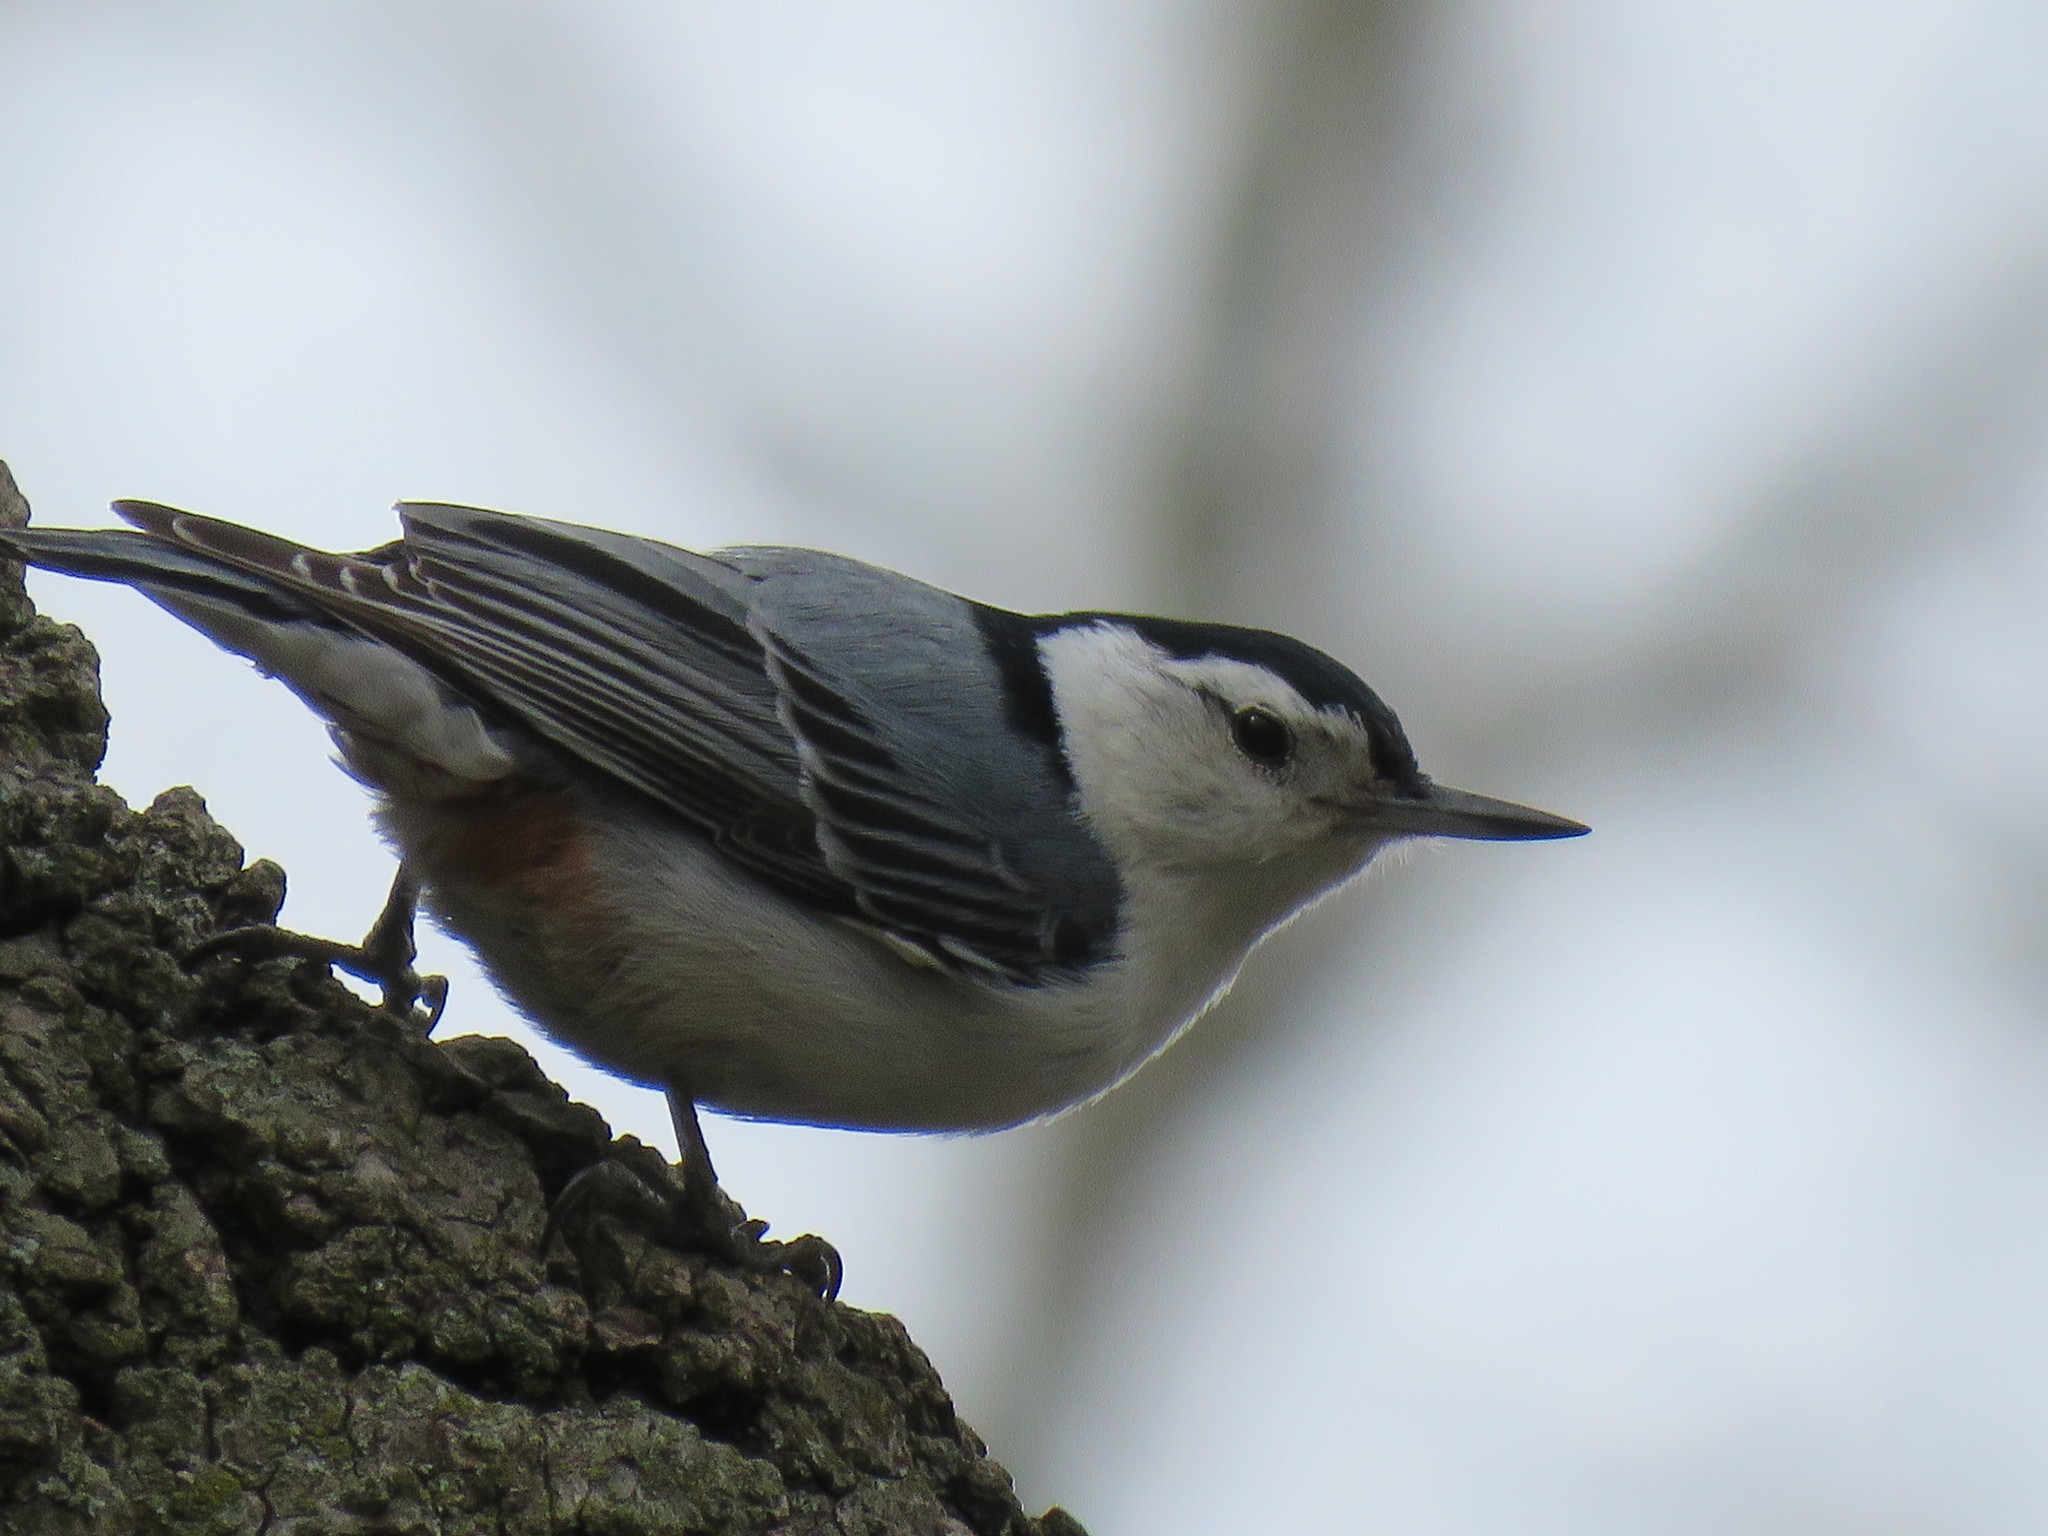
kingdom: Animalia
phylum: Chordata
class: Aves
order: Passeriformes
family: Sittidae
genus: Sitta
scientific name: Sitta carolinensis
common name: White-breasted nuthatch
